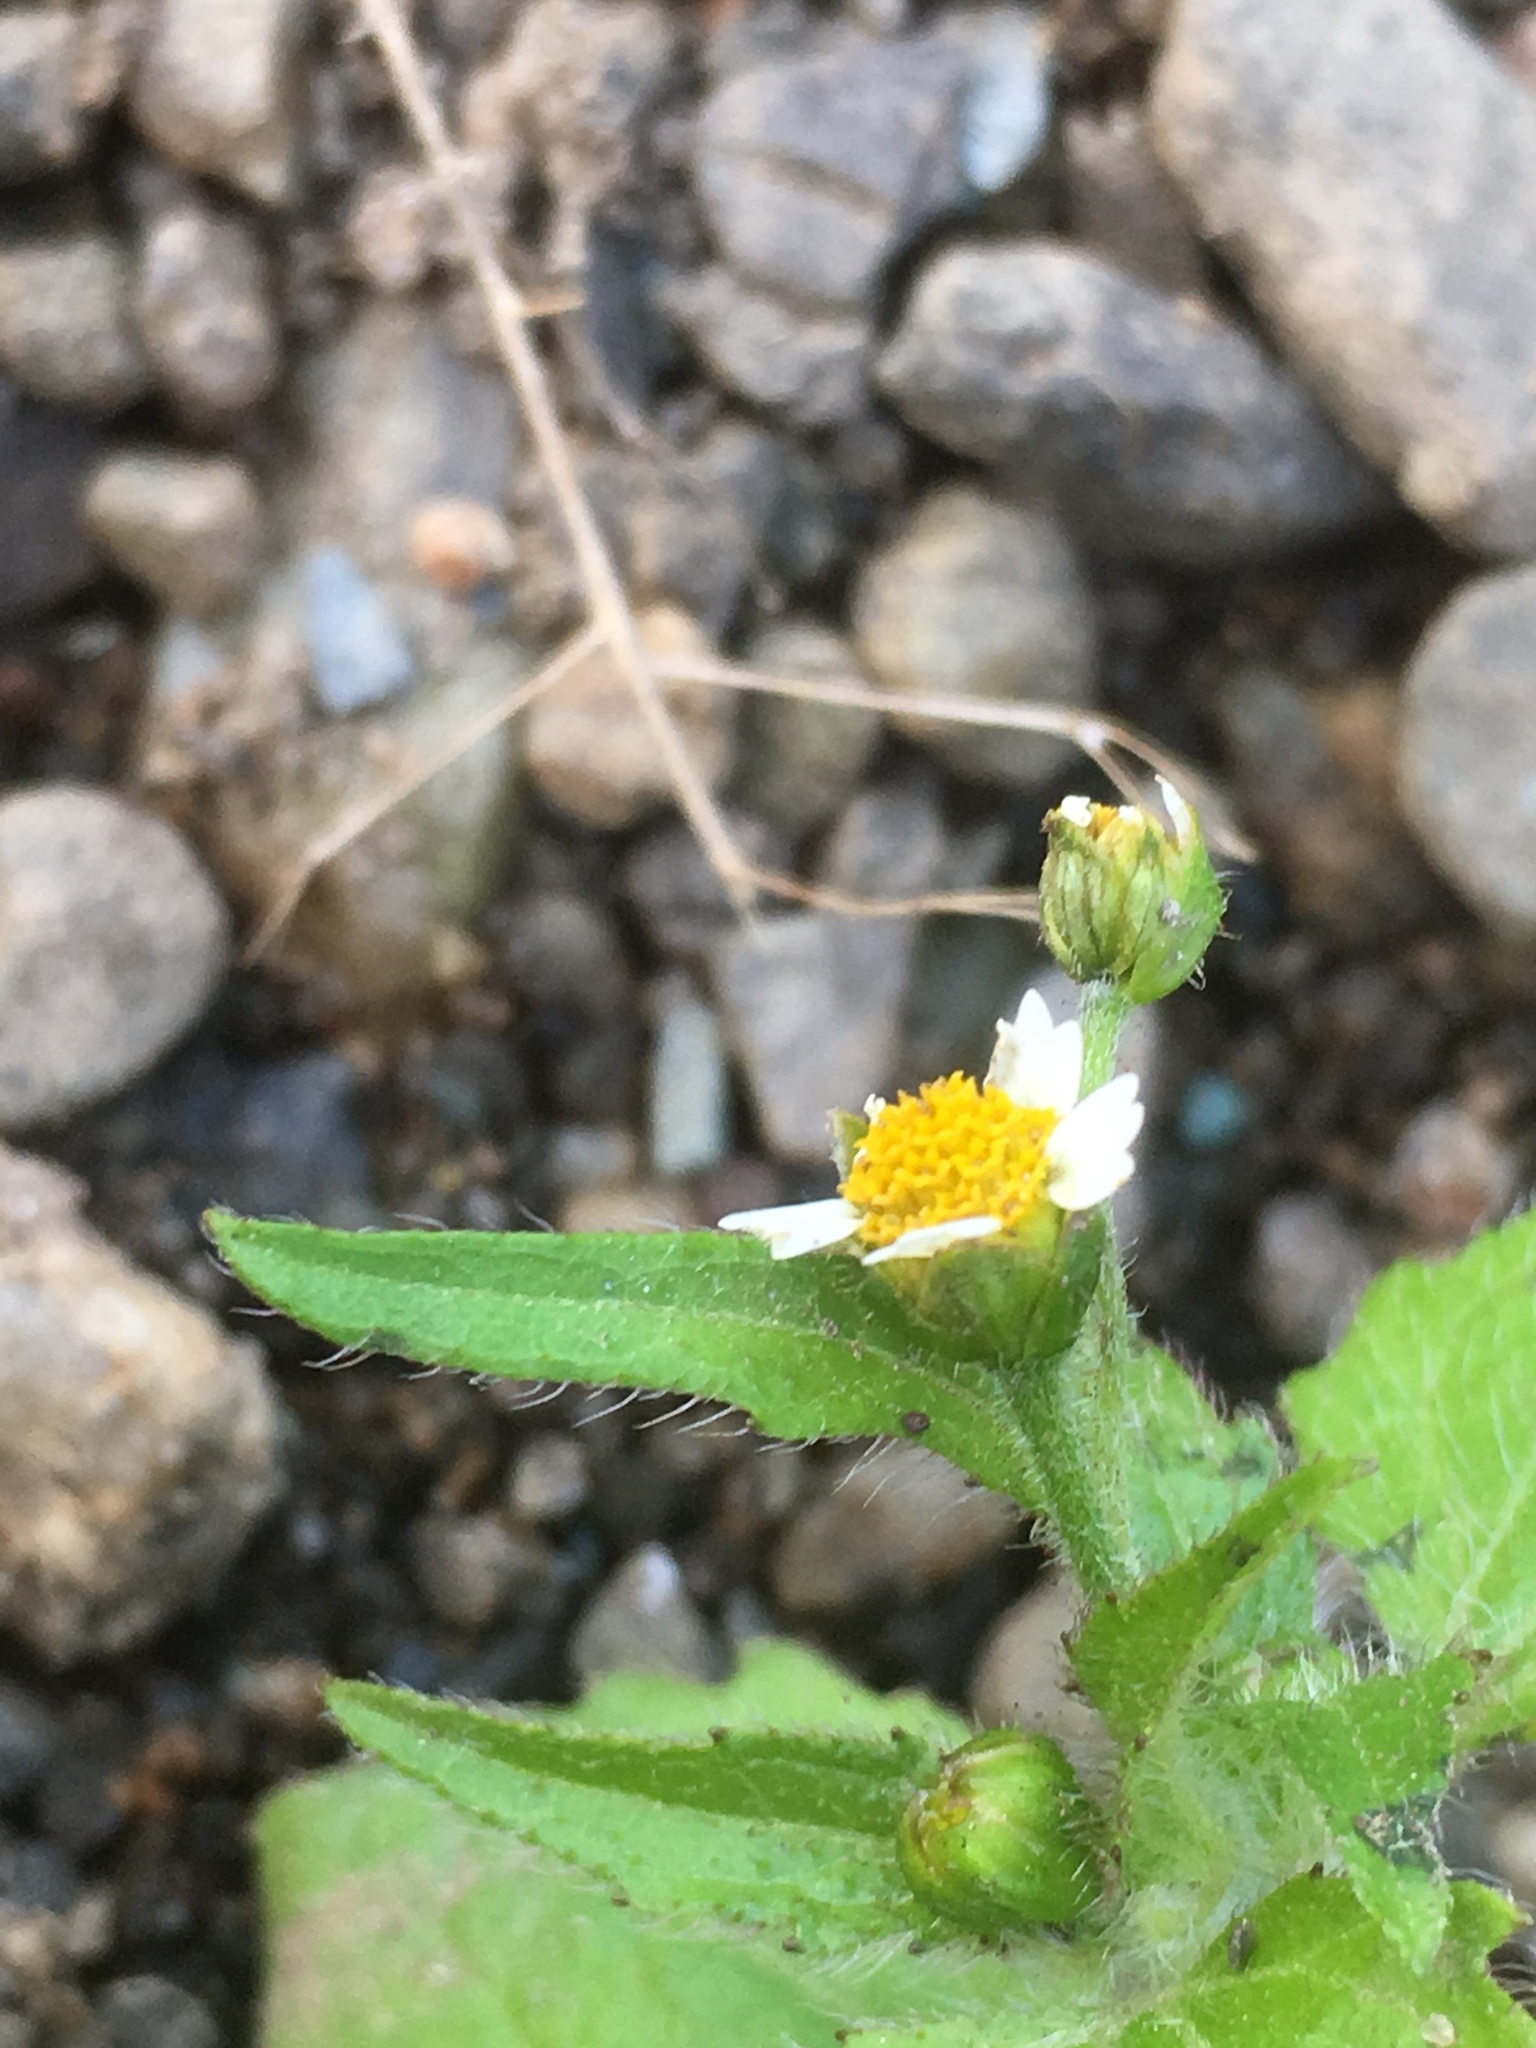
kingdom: Plantae
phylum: Tracheophyta
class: Magnoliopsida
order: Asterales
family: Asteraceae
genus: Galinsoga
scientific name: Galinsoga quadriradiata
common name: Shaggy soldier
